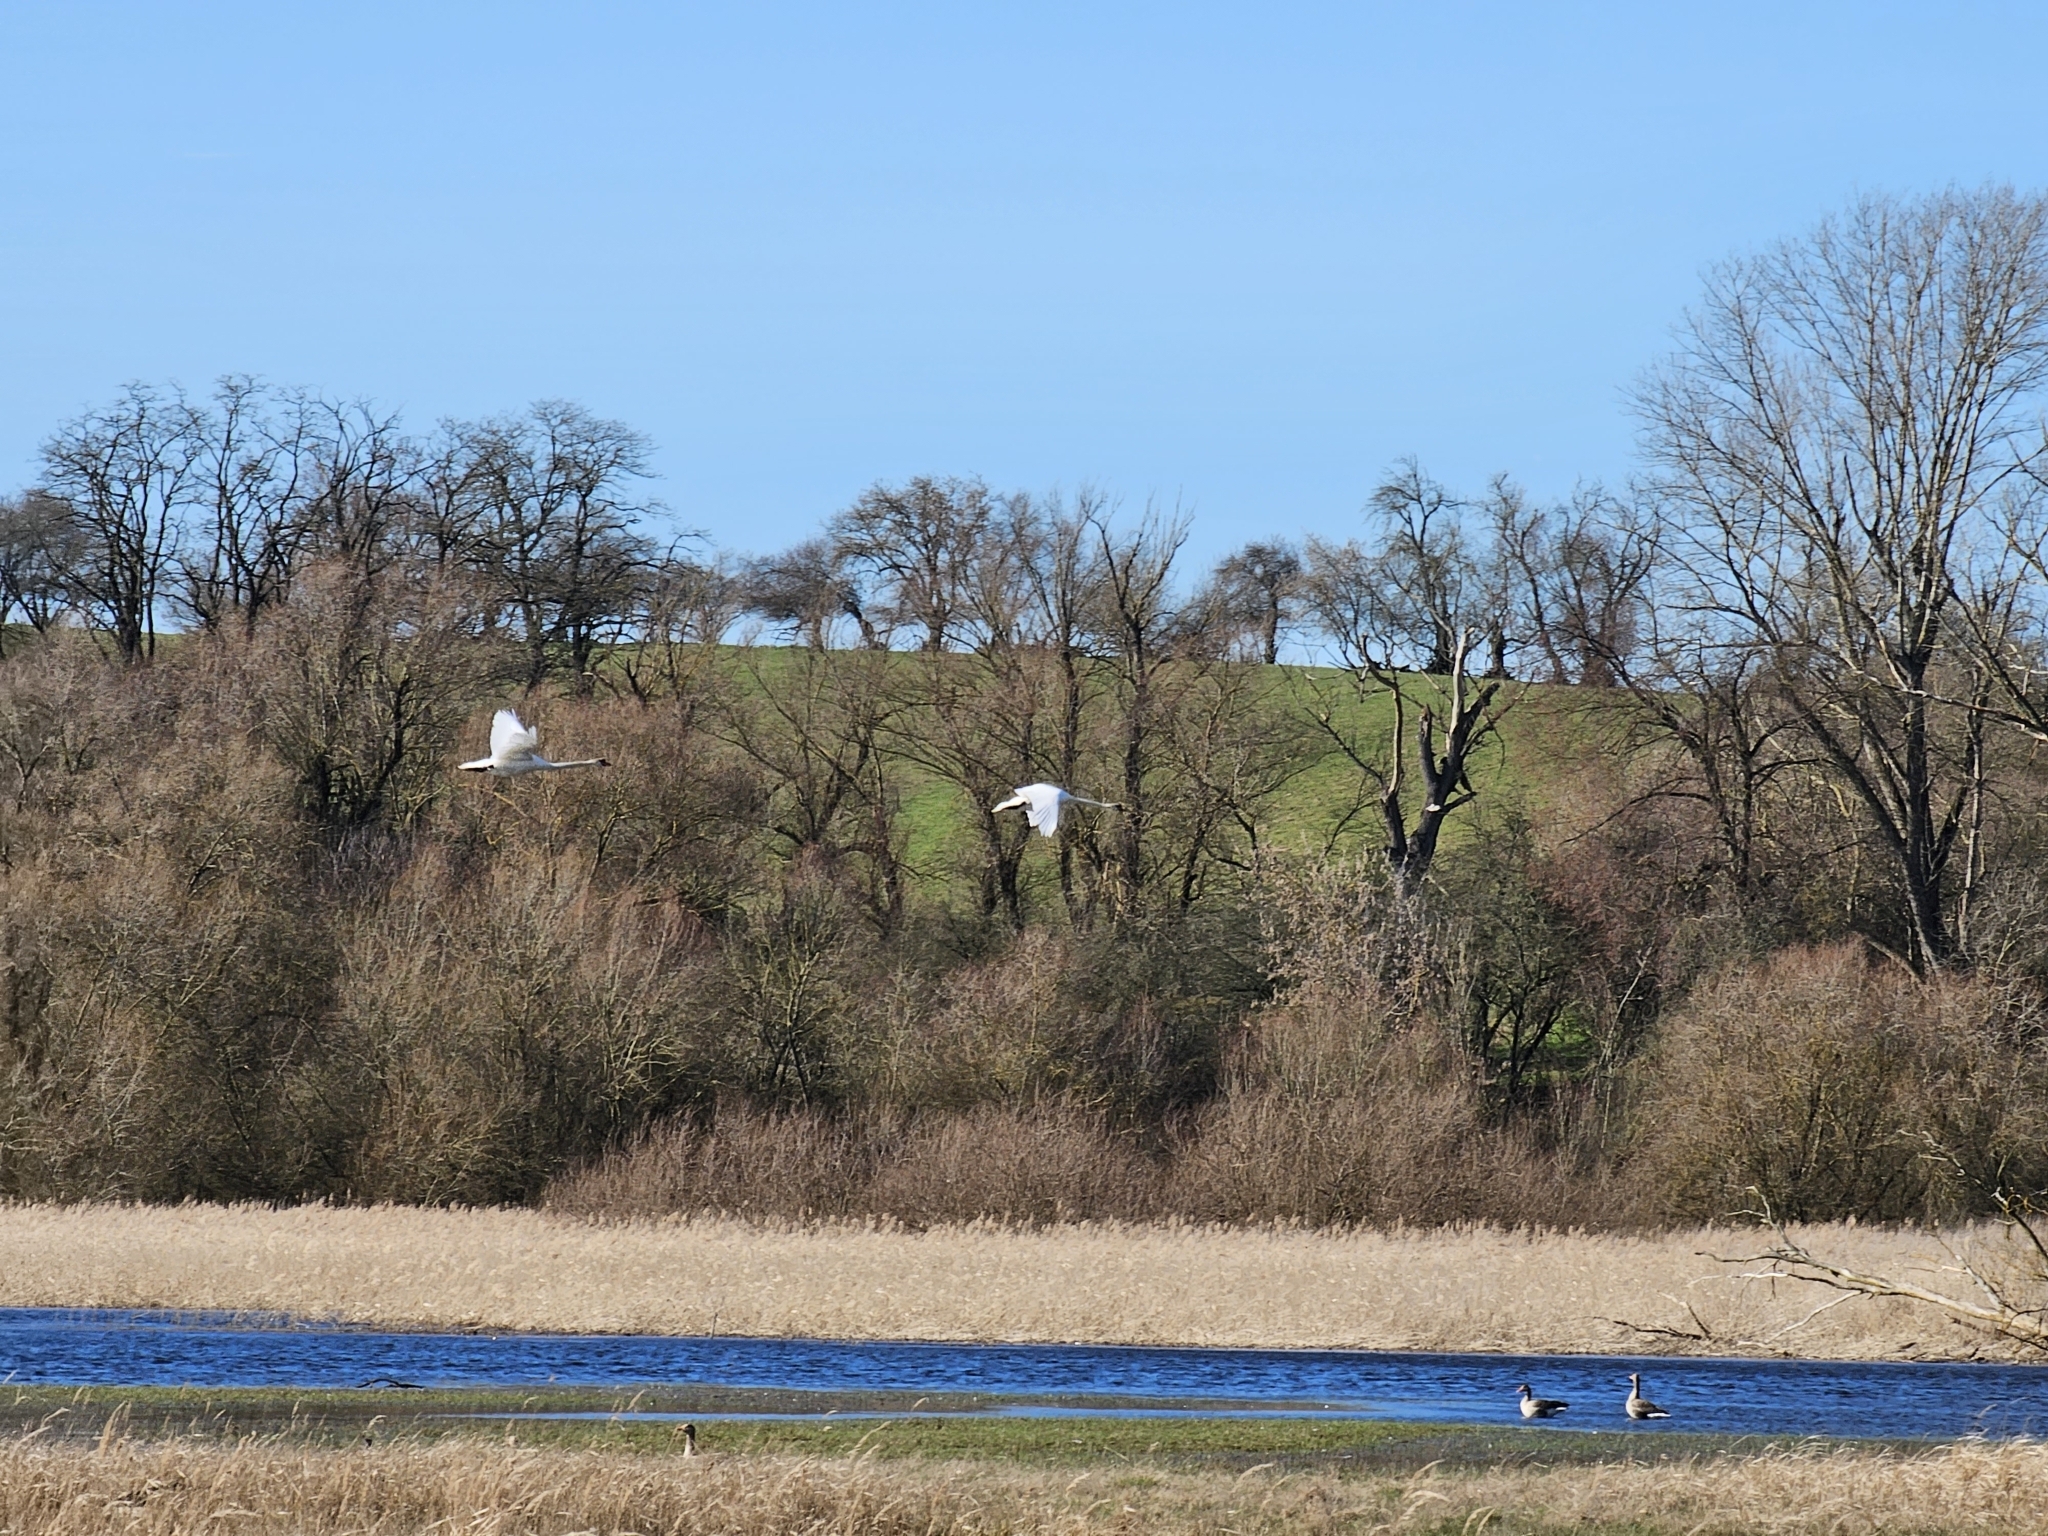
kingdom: Animalia
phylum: Chordata
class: Aves
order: Anseriformes
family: Anatidae
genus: Cygnus
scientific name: Cygnus olor
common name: Mute swan
